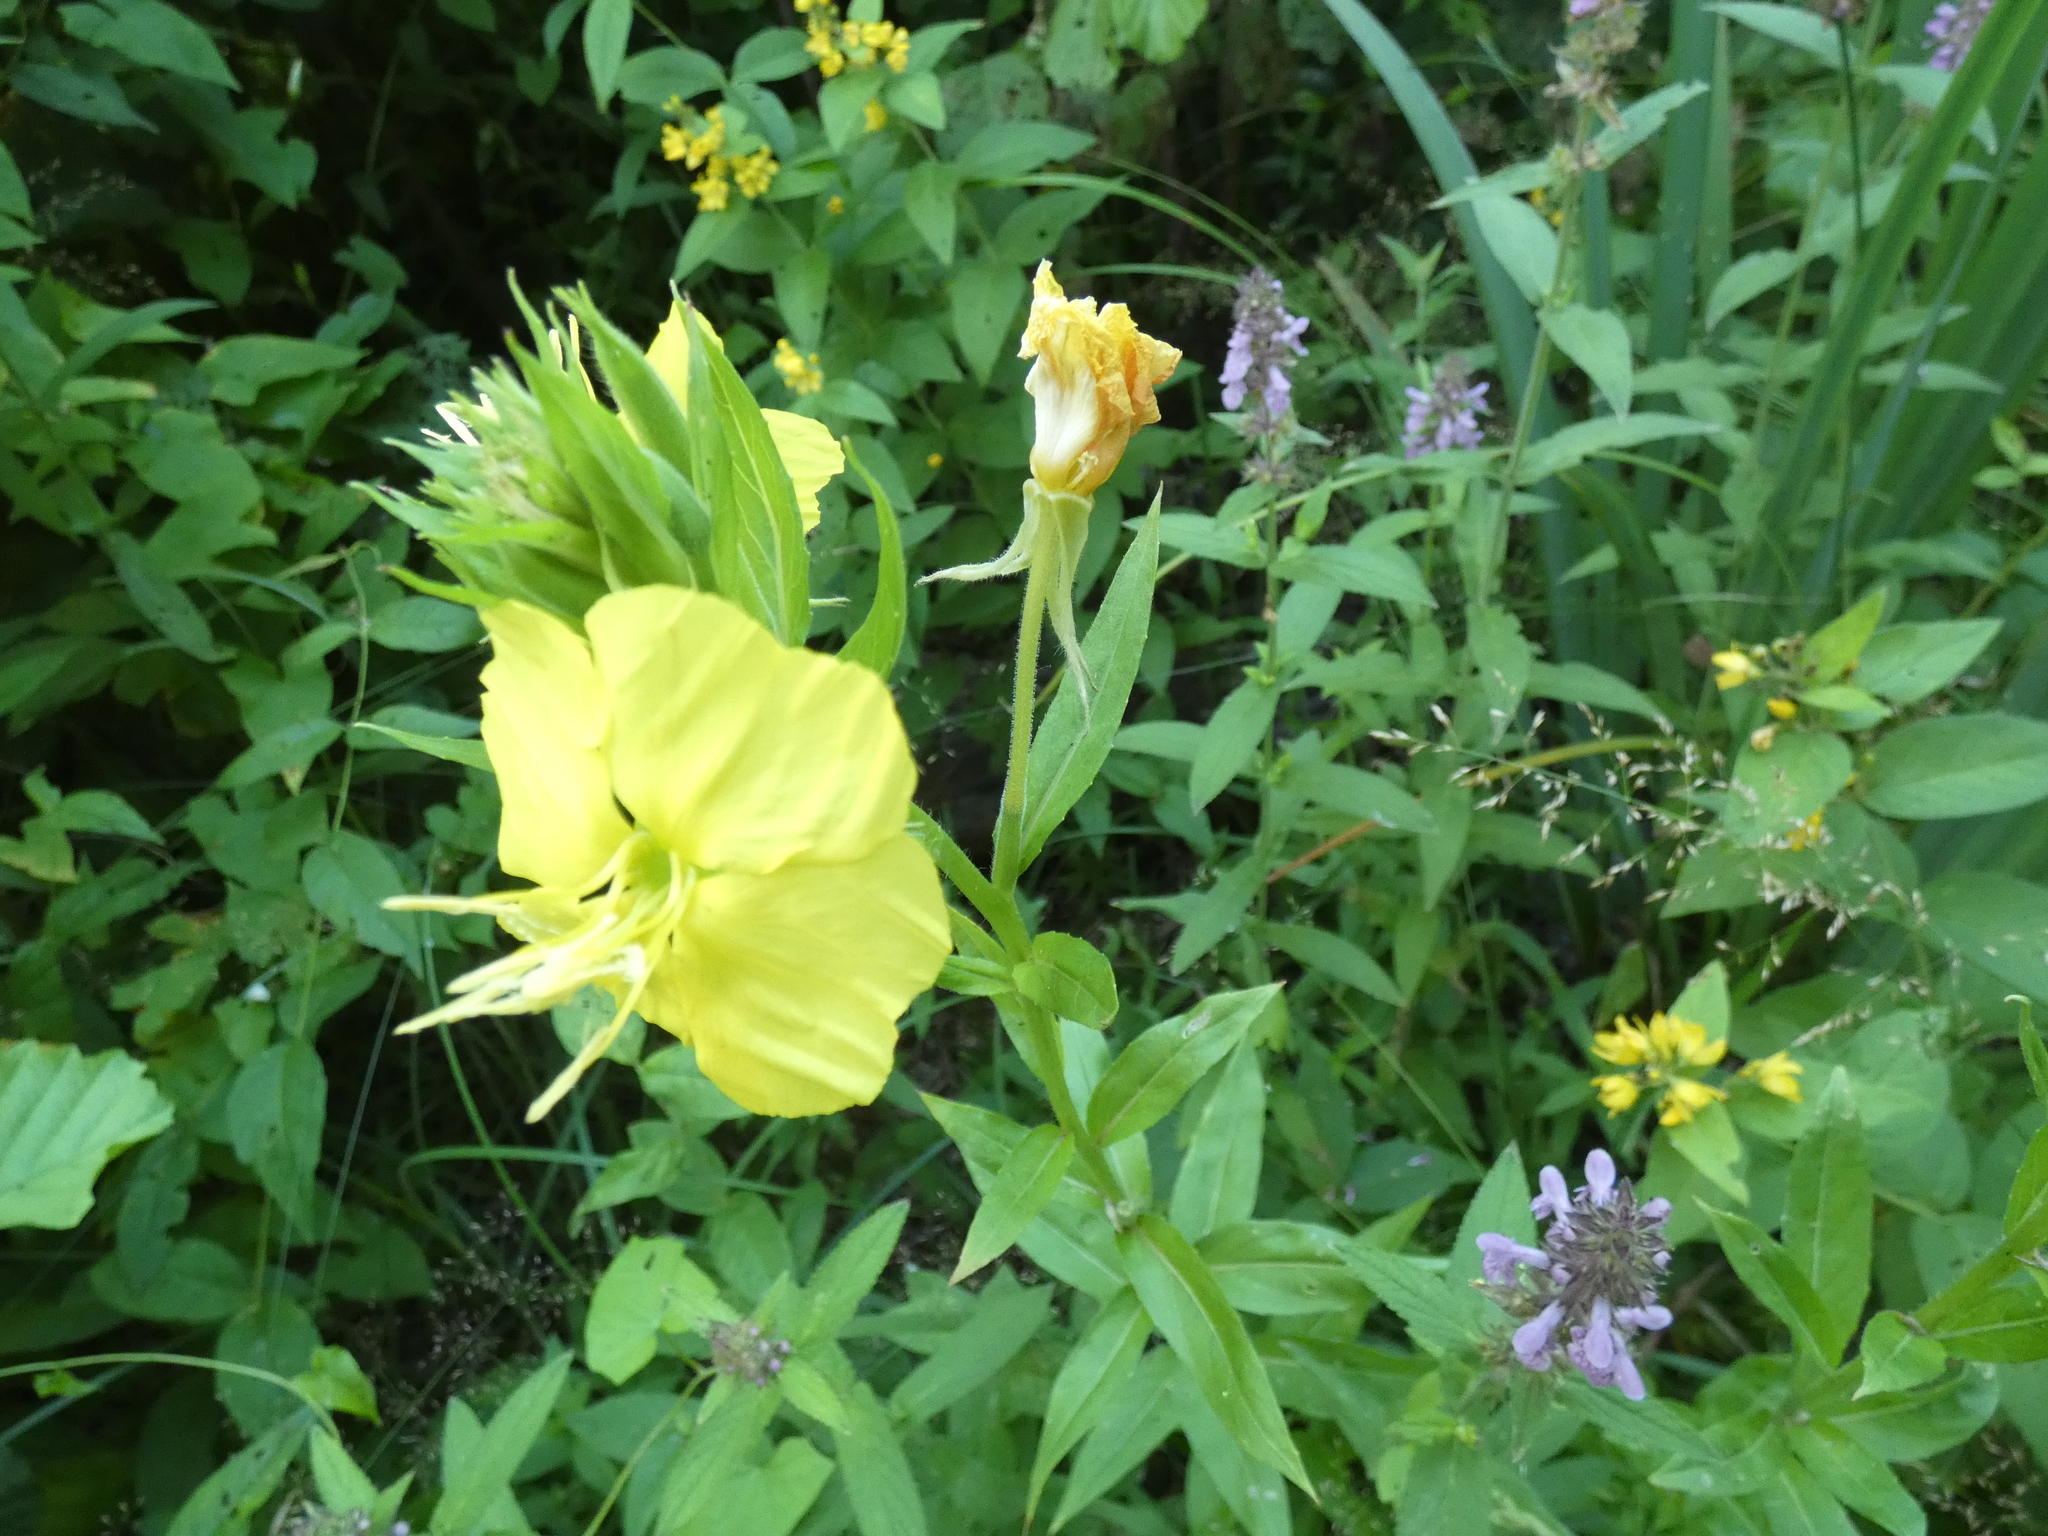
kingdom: Plantae
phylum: Tracheophyta
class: Magnoliopsida
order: Myrtales
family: Onagraceae
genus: Oenothera
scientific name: Oenothera biennis
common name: Common evening-primrose
